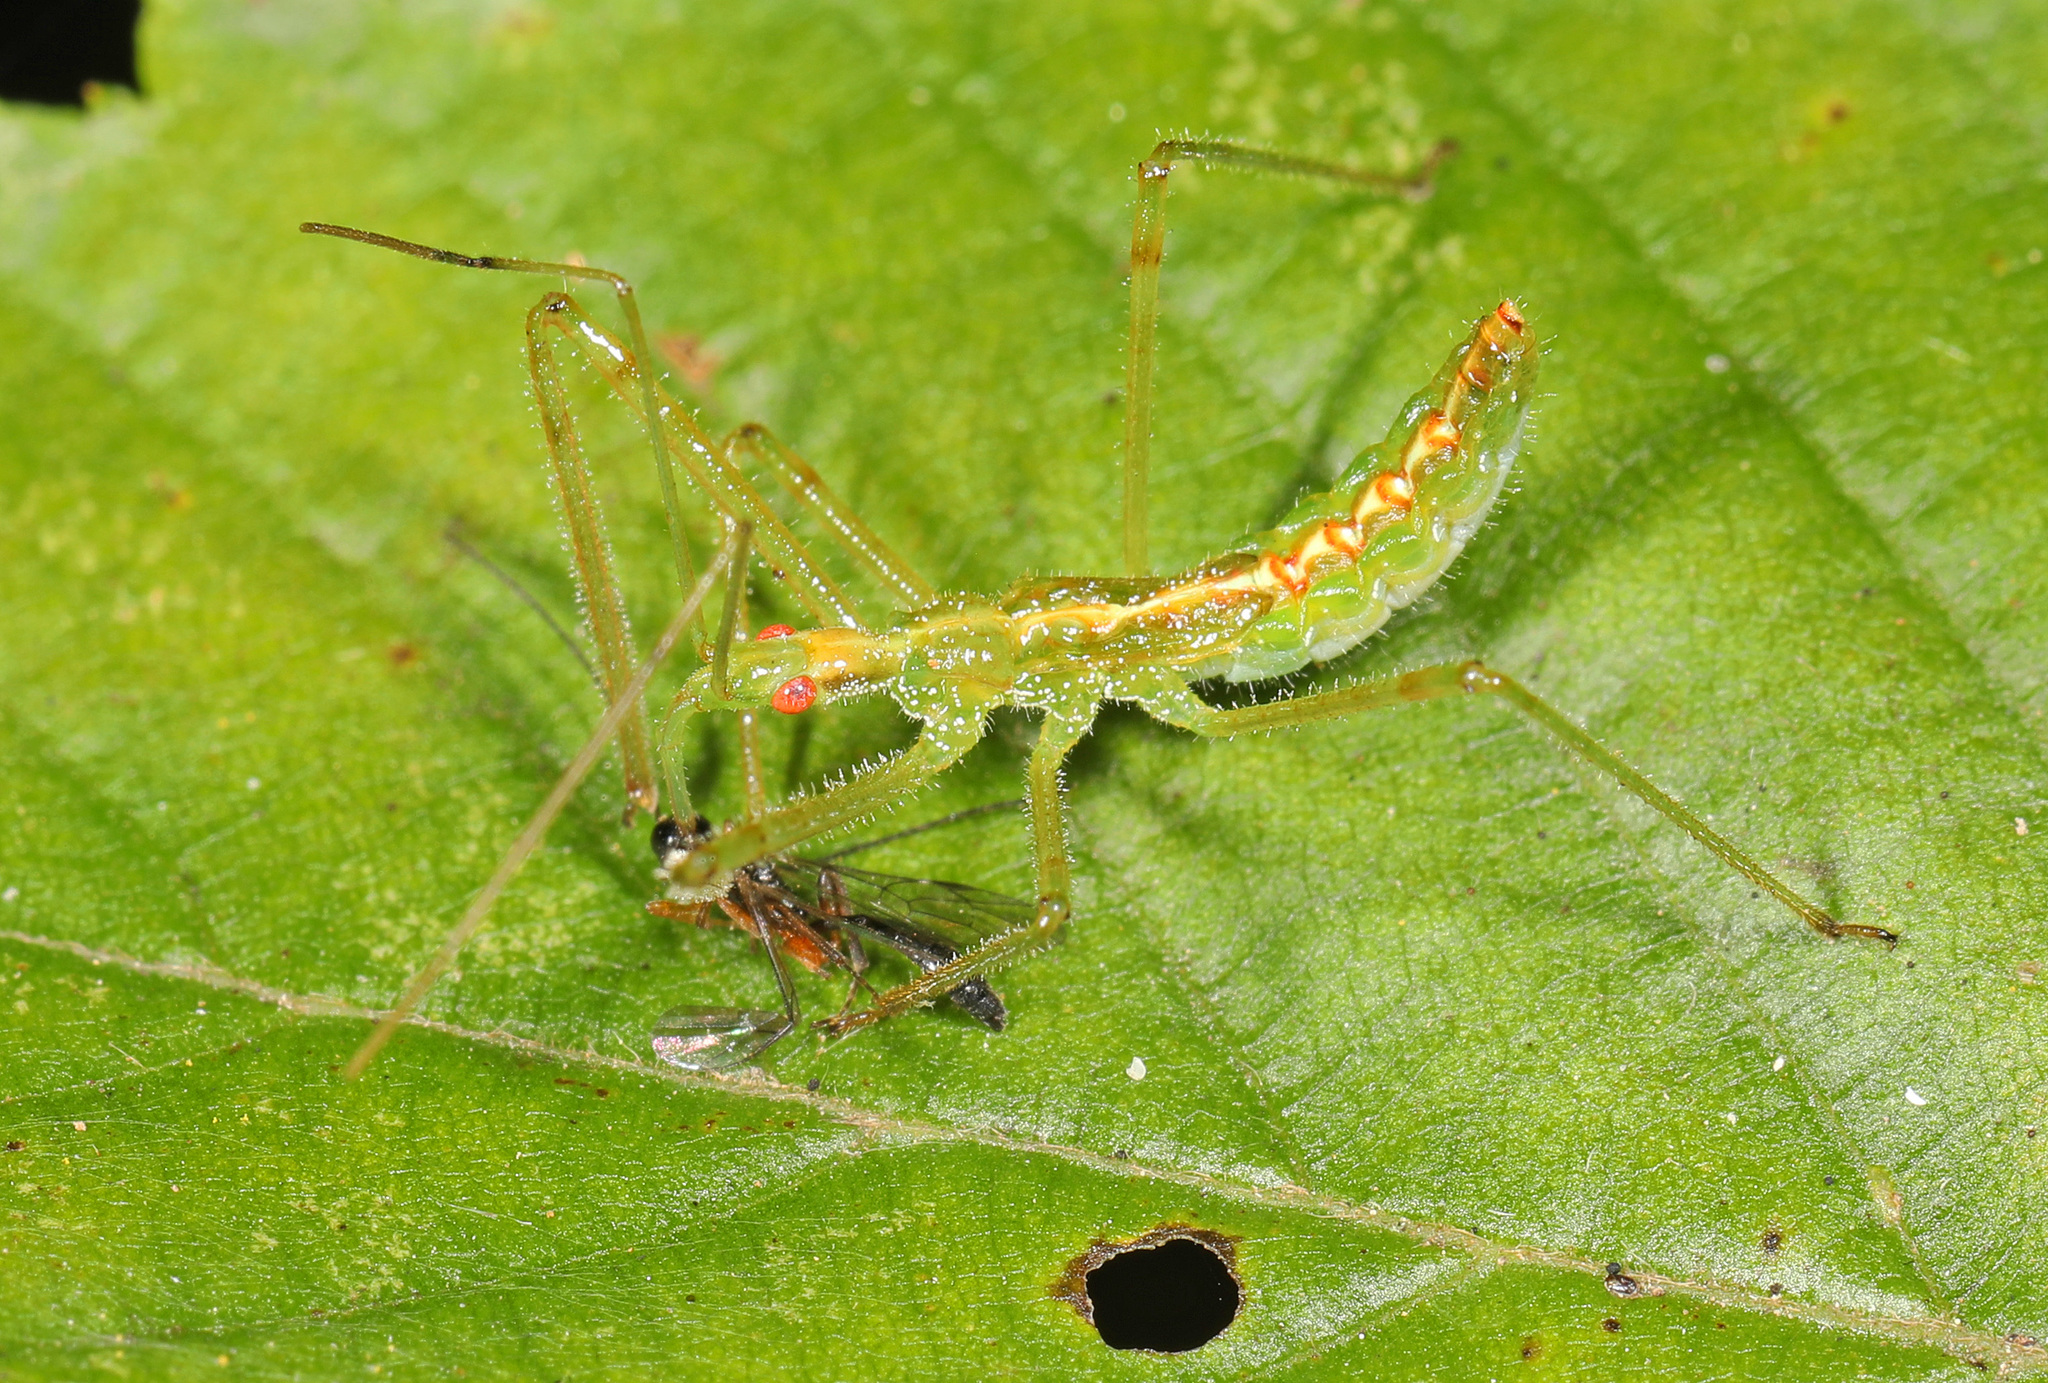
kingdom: Animalia
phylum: Arthropoda
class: Insecta
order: Hemiptera
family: Reduviidae
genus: Zelus
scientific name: Zelus luridus
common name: Pale green assassin bug
